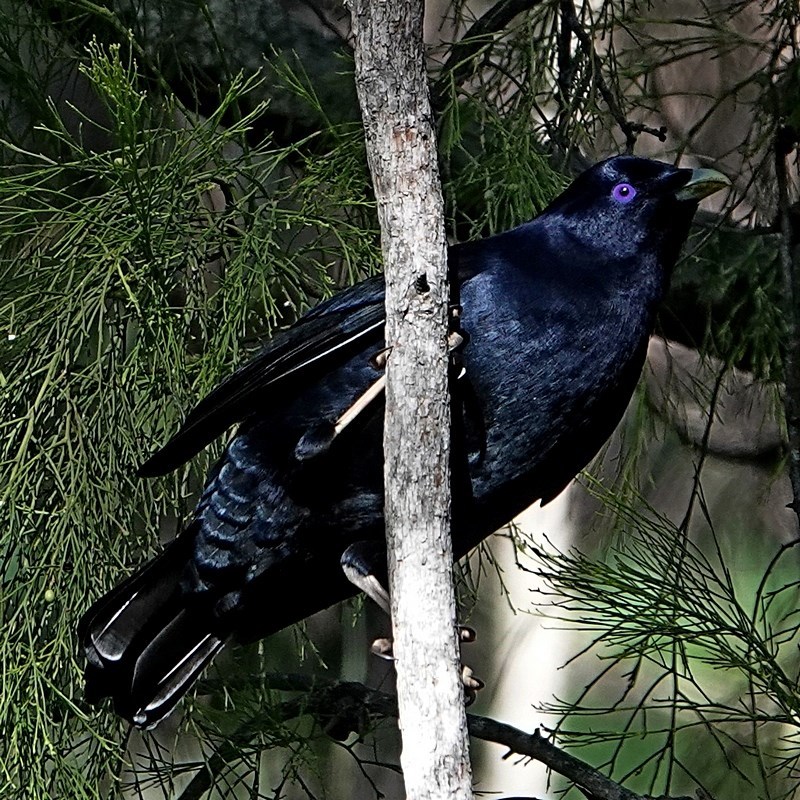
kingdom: Animalia
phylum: Chordata
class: Aves
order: Passeriformes
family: Ptilonorhynchidae
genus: Ptilonorhynchus
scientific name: Ptilonorhynchus violaceus
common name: Satin bowerbird
